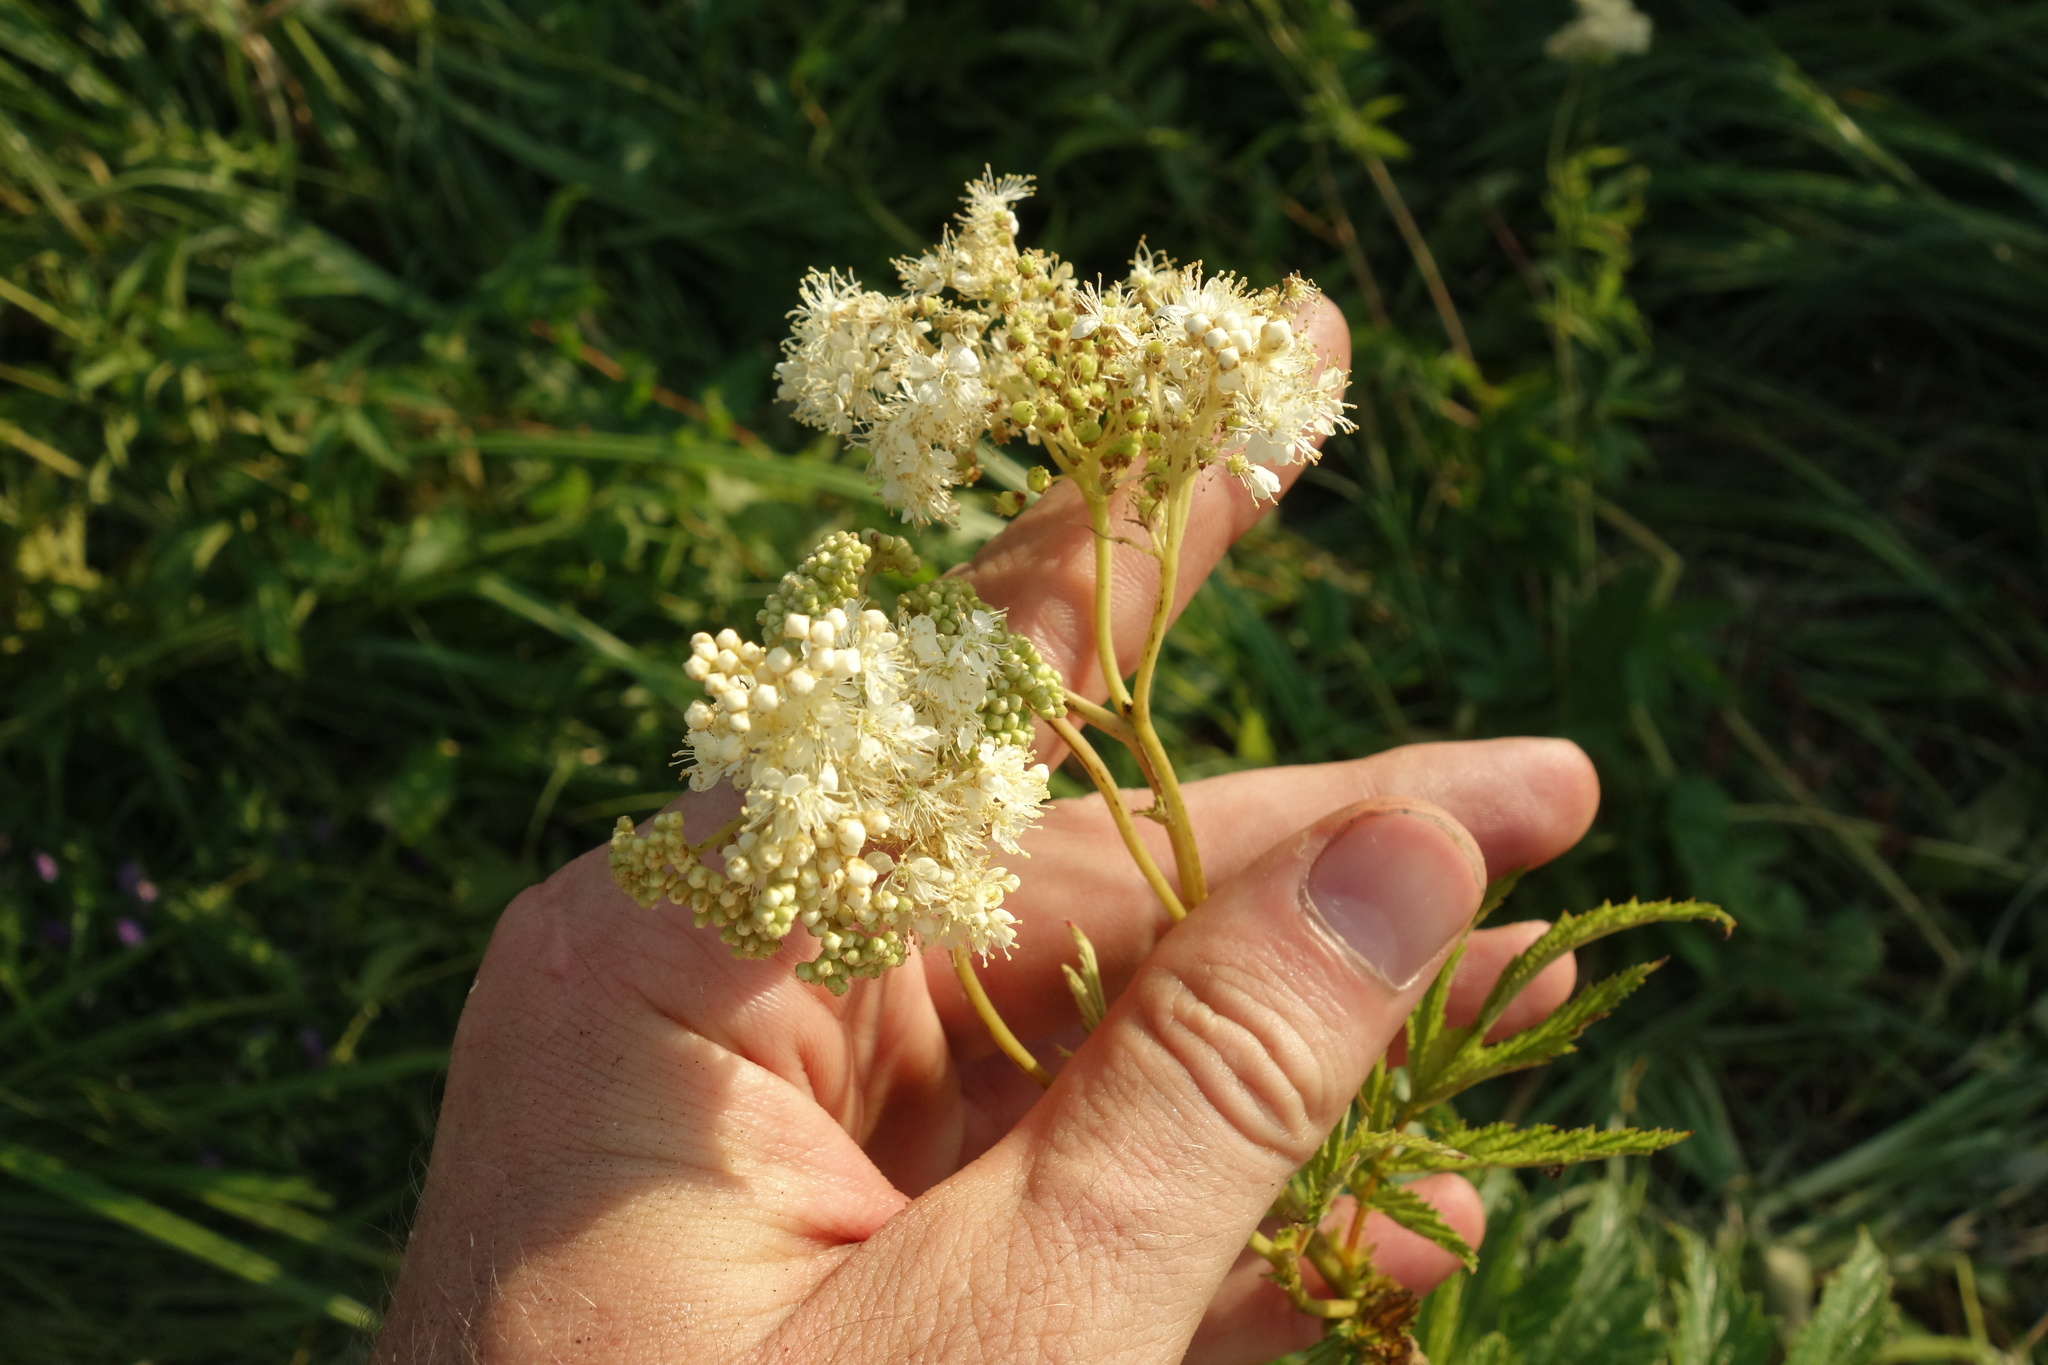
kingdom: Plantae
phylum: Tracheophyta
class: Magnoliopsida
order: Rosales
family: Rosaceae
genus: Filipendula
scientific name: Filipendula ulmaria
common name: Meadowsweet
